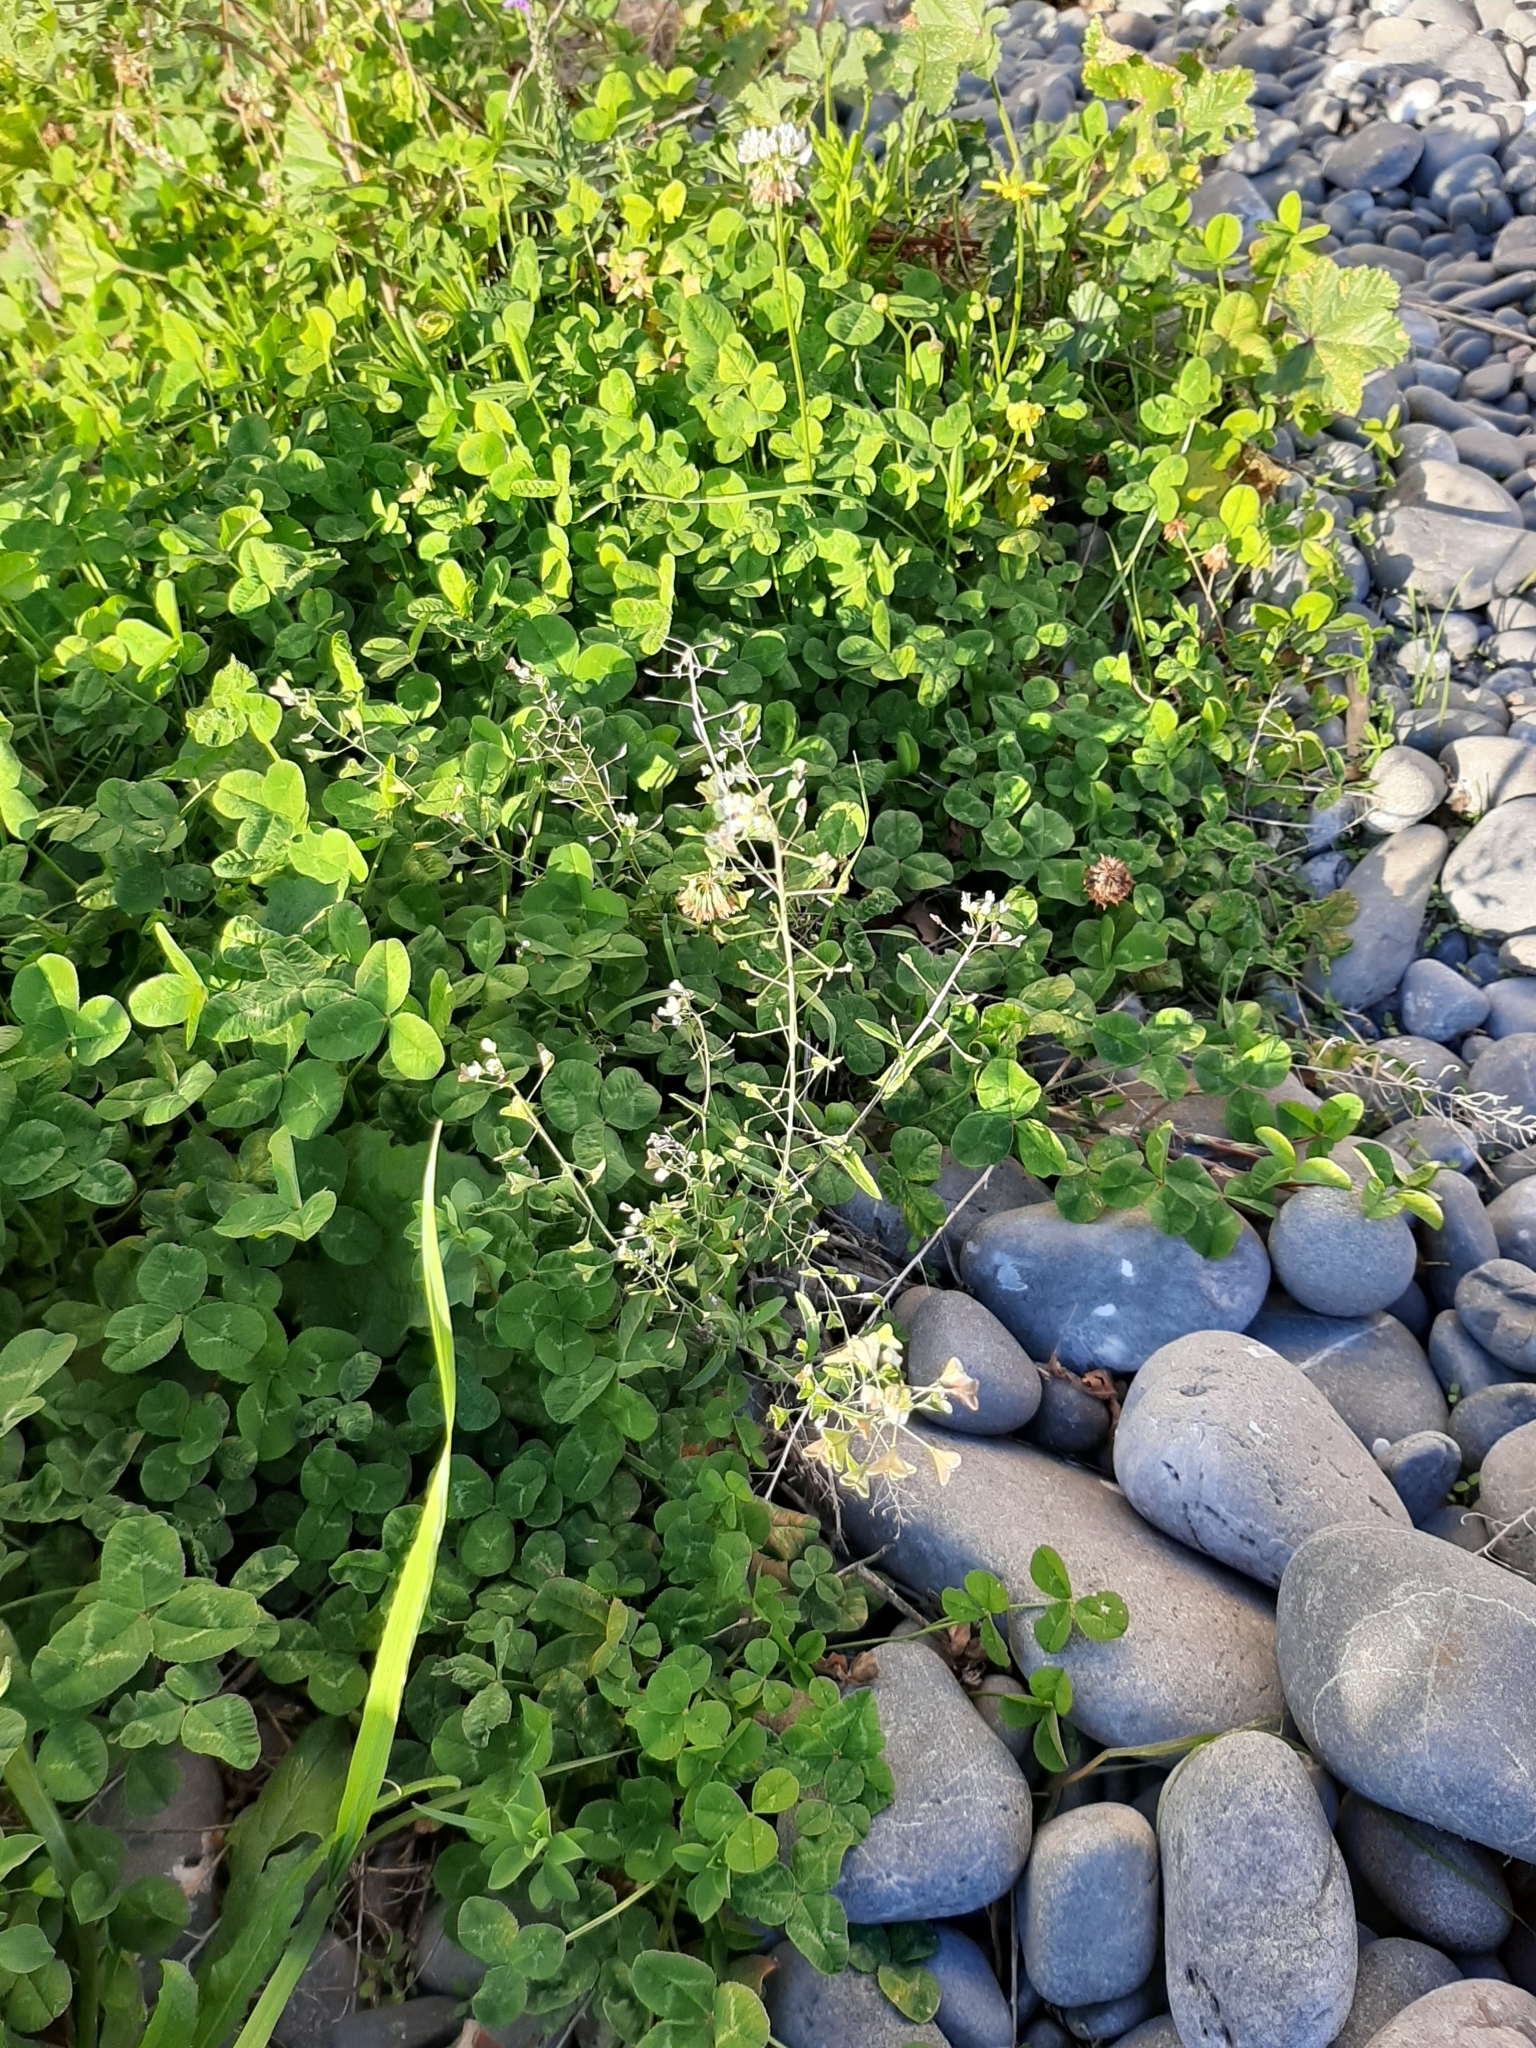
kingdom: Plantae
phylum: Tracheophyta
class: Magnoliopsida
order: Brassicales
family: Brassicaceae
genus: Capsella
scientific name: Capsella bursa-pastoris
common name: Shepherd's purse
